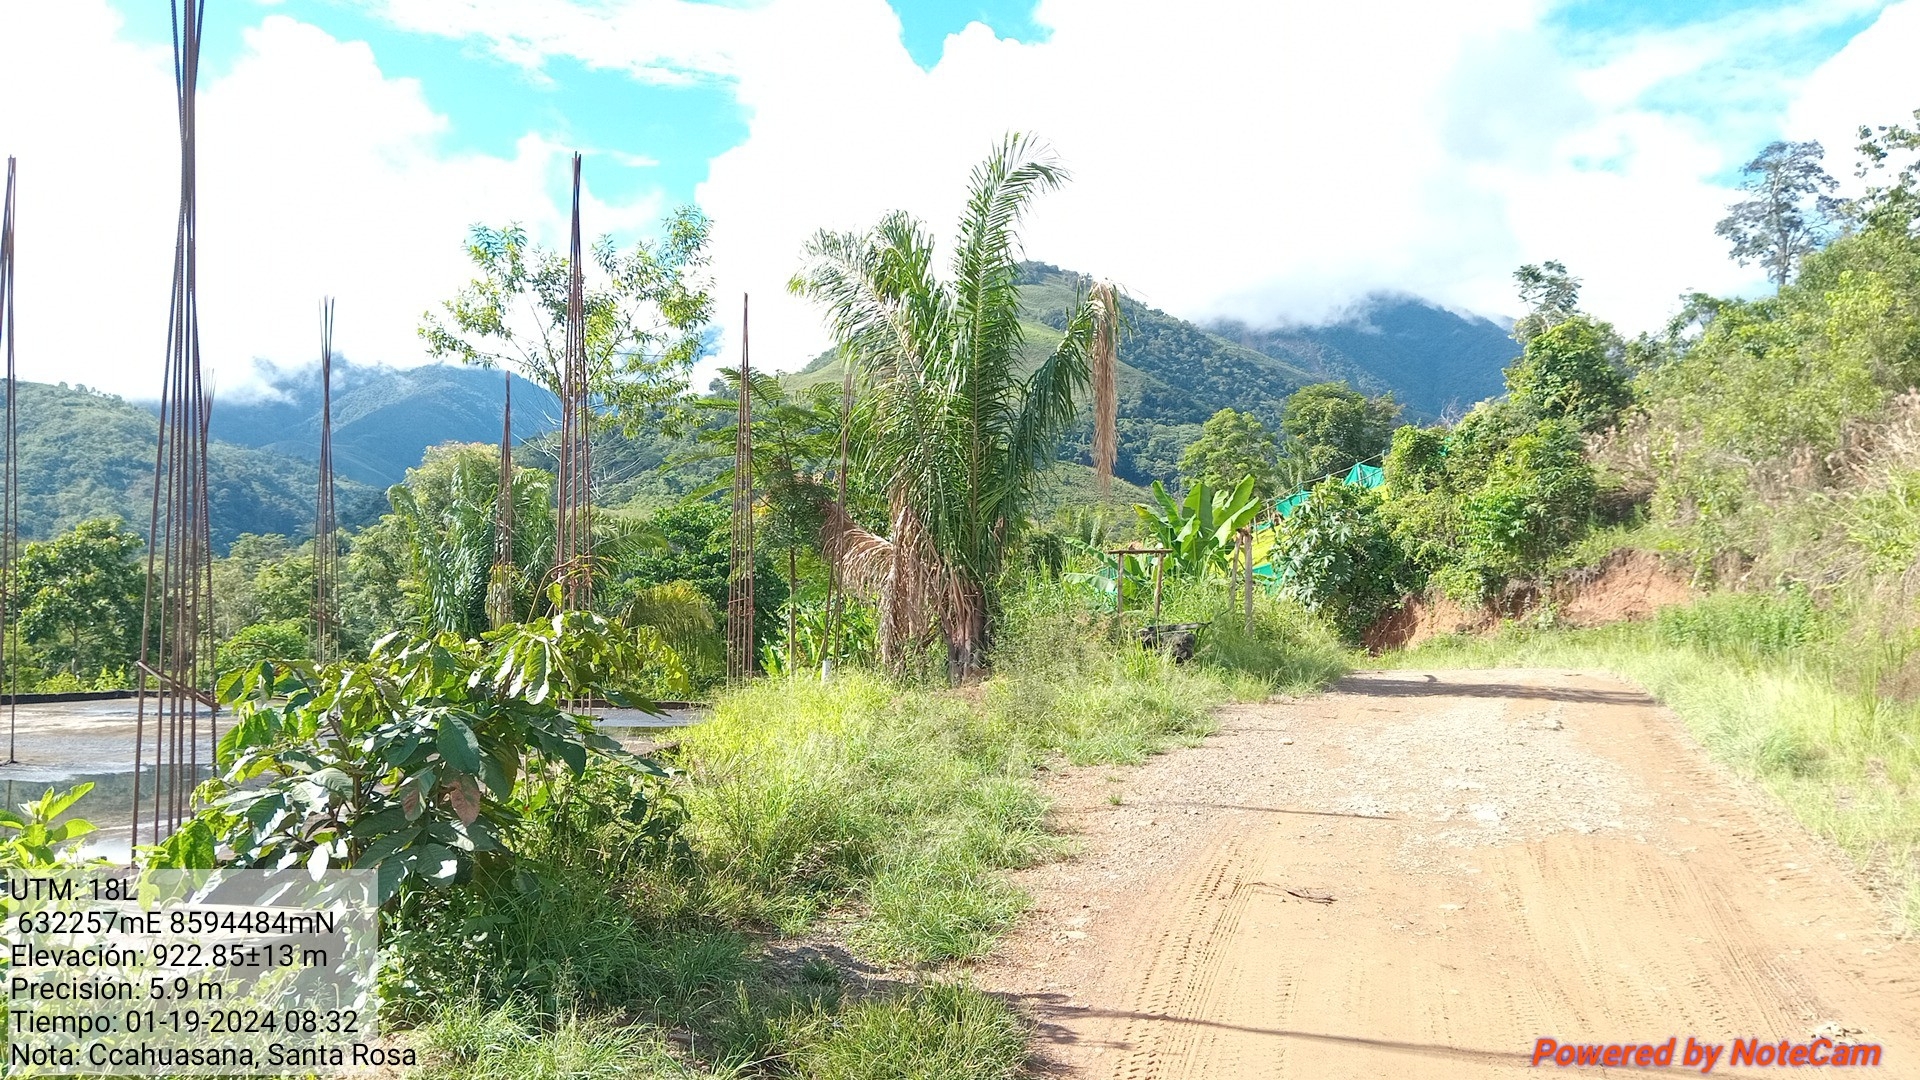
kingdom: Plantae
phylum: Tracheophyta
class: Liliopsida
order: Arecales
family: Arecaceae
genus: Attalea
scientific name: Attalea weberbaueri
